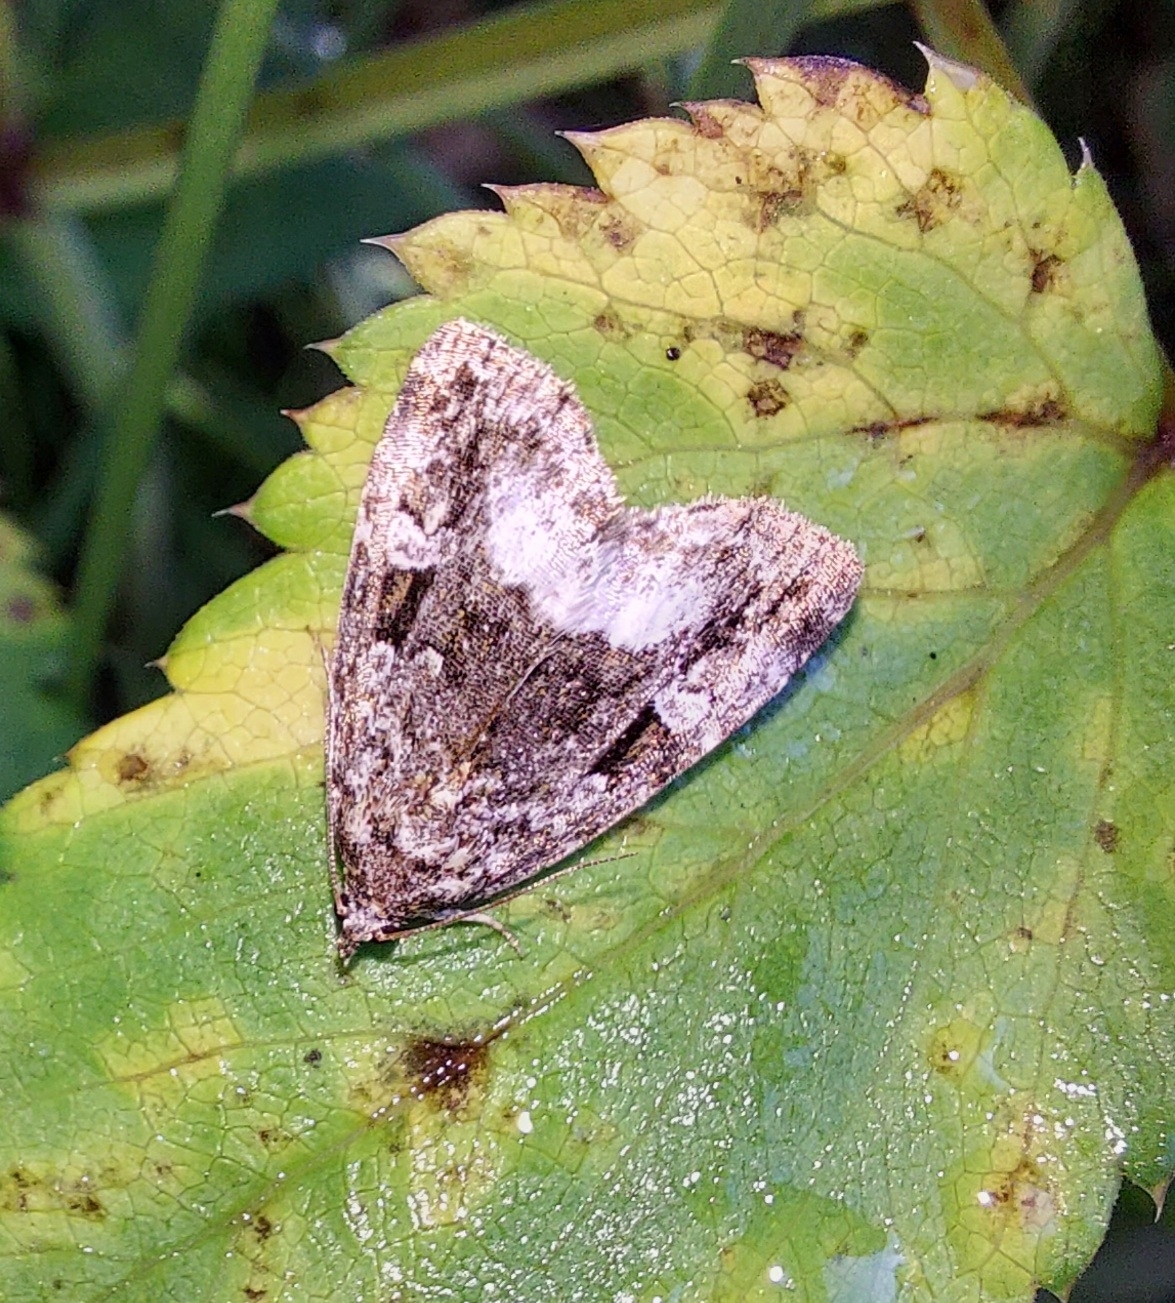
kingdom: Animalia
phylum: Arthropoda
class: Insecta
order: Lepidoptera
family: Noctuidae
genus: Deltote
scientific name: Deltote pygarga
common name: Marbled white spot
